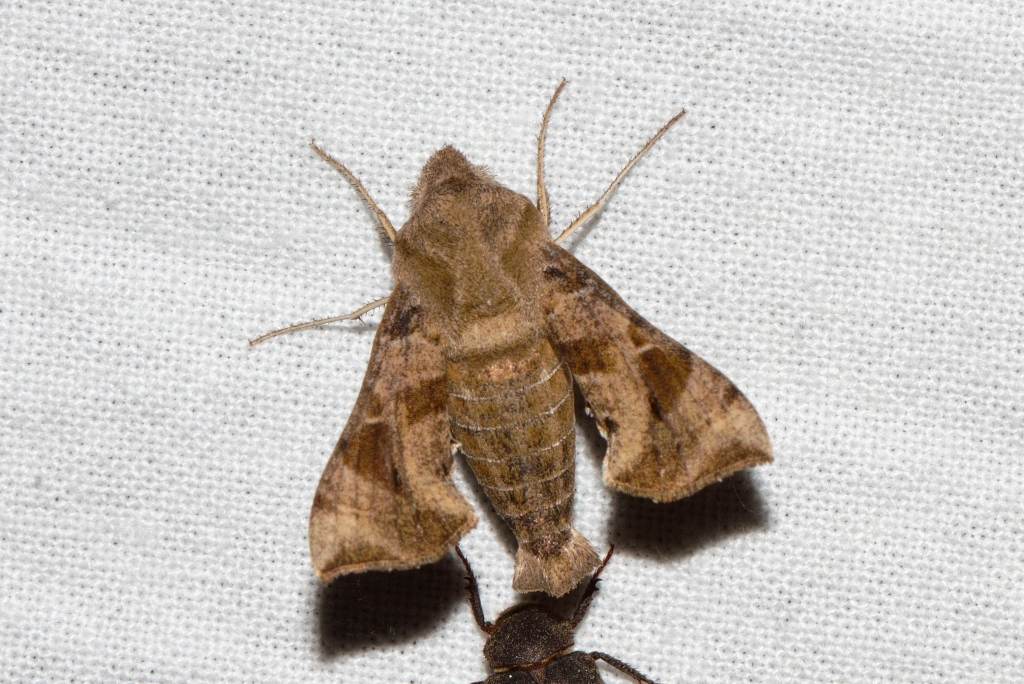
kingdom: Animalia
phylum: Arthropoda
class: Insecta
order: Lepidoptera
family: Sphingidae
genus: Sphingonaepiopsis
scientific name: Sphingonaepiopsis nana
